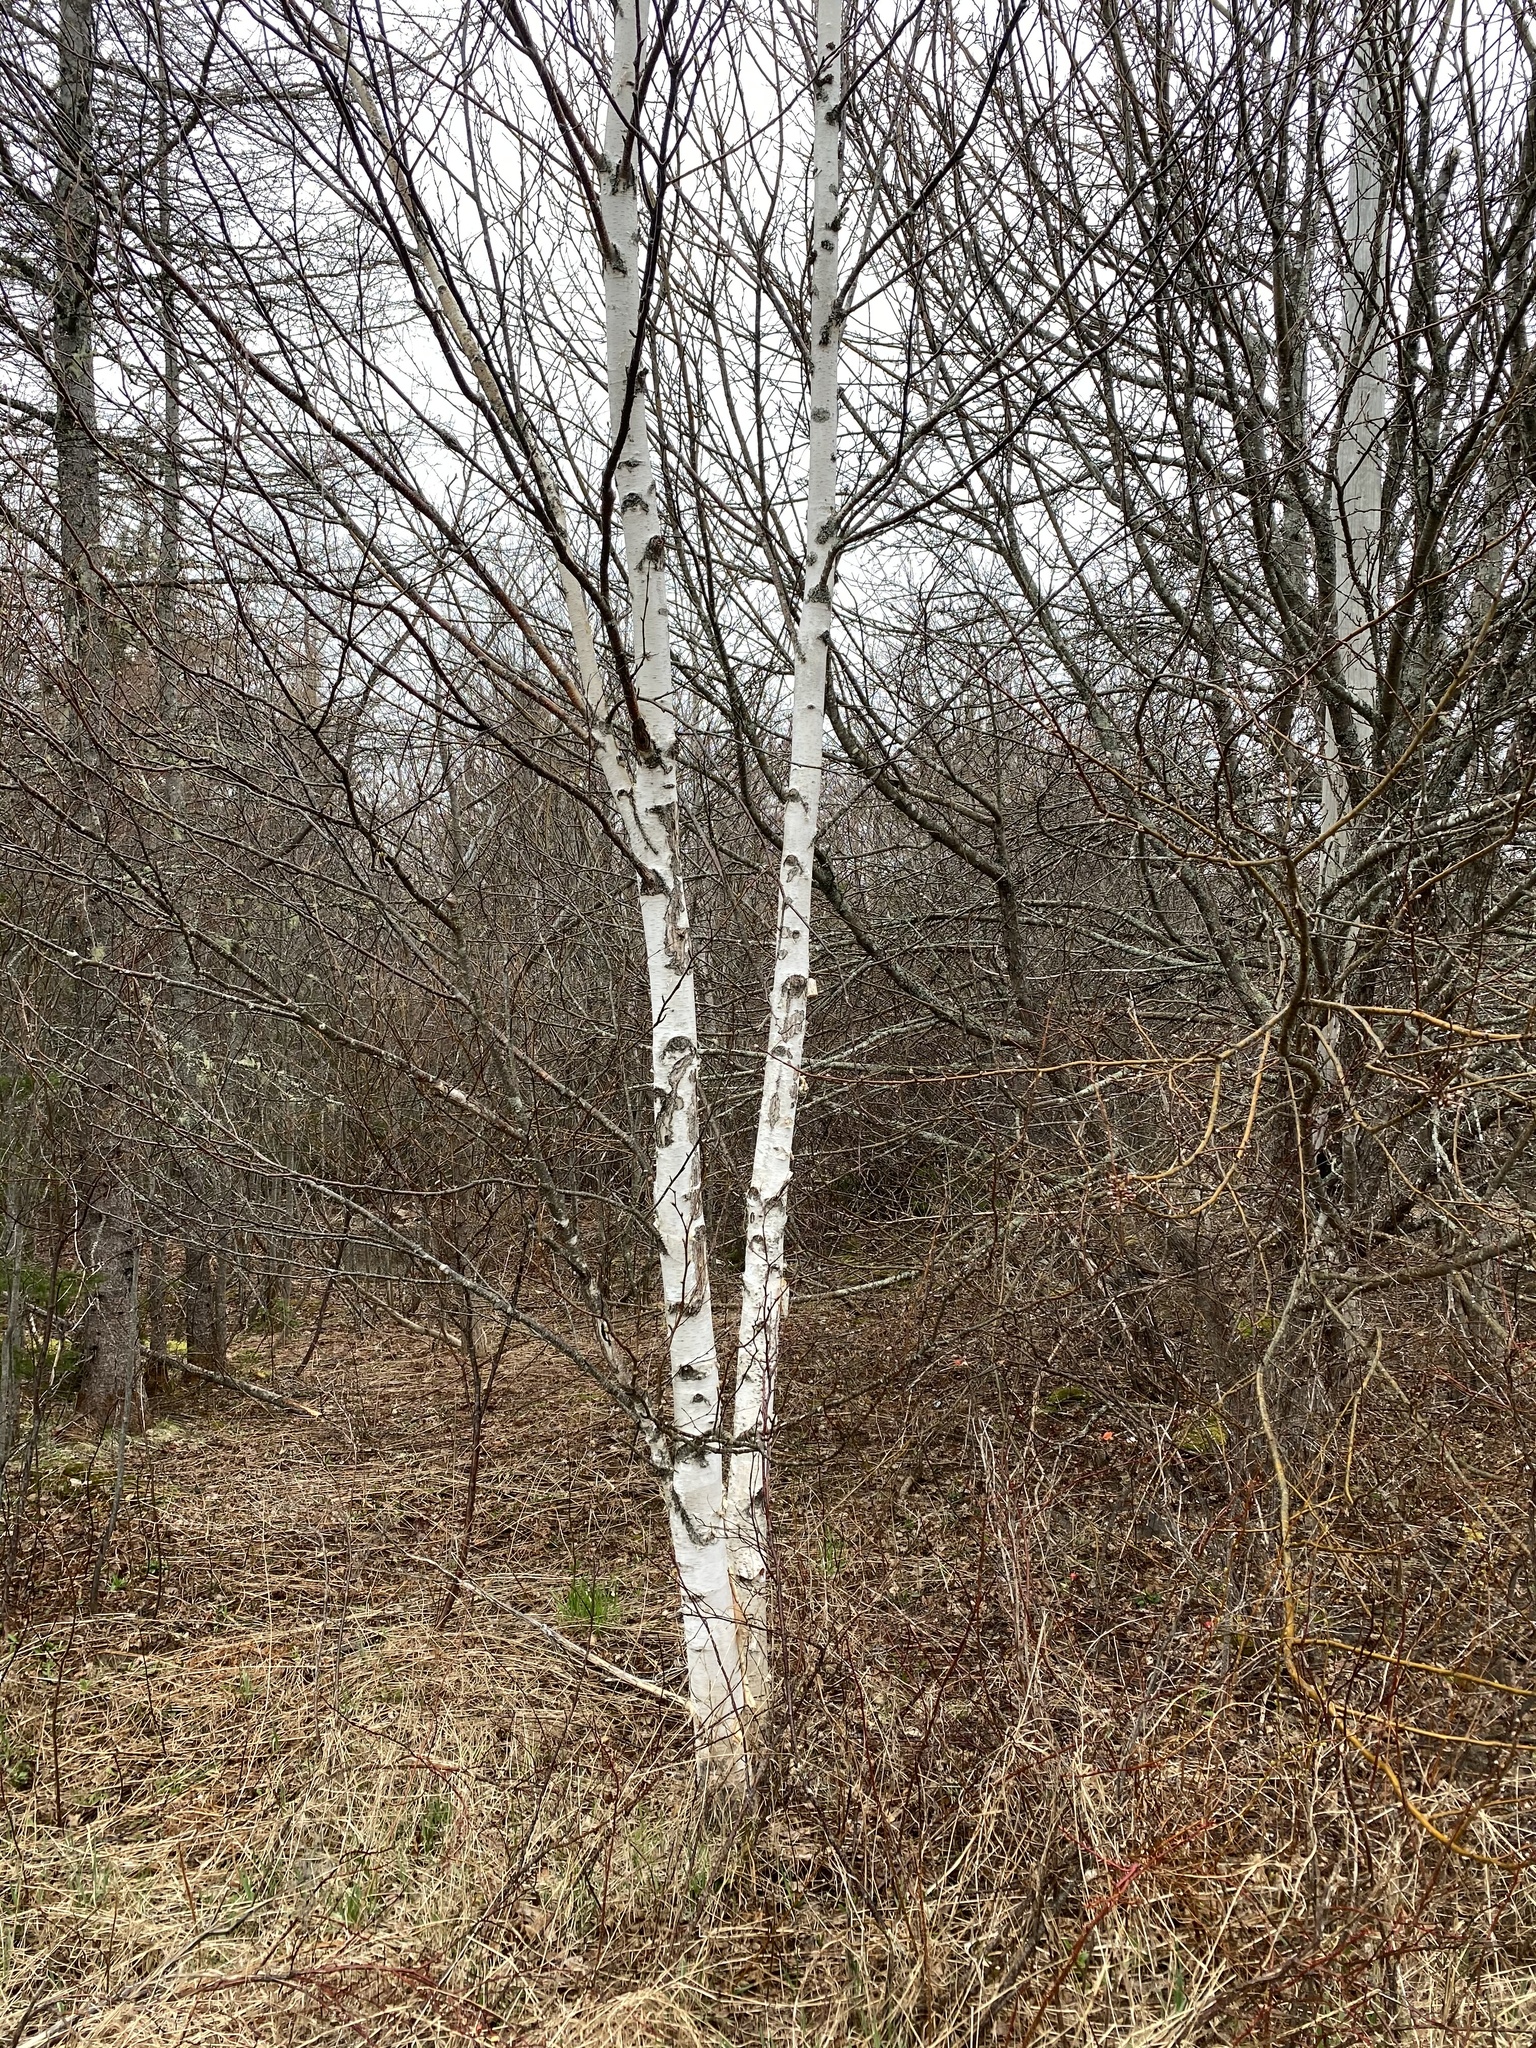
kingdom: Plantae
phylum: Tracheophyta
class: Magnoliopsida
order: Fagales
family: Betulaceae
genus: Betula
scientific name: Betula papyrifera
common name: Paper birch
